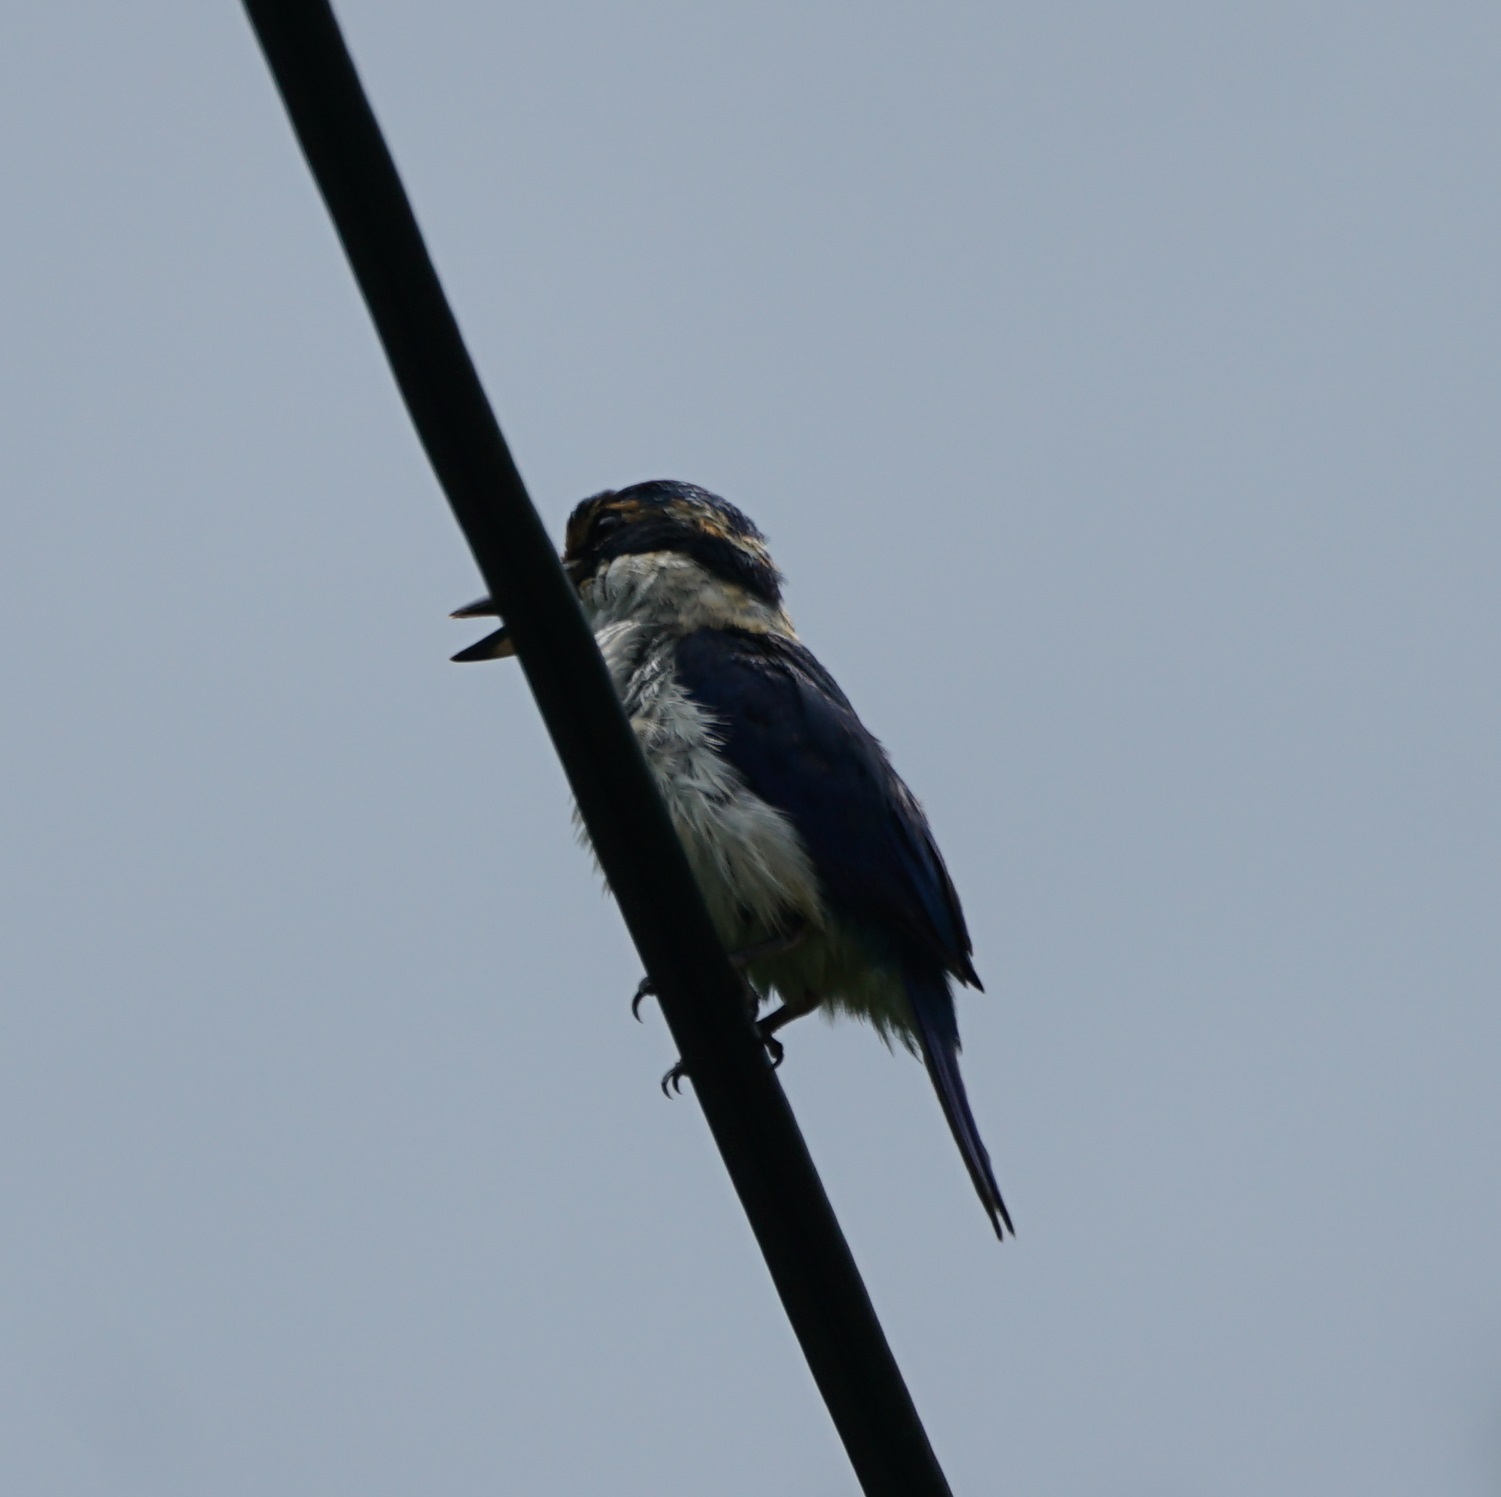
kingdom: Animalia
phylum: Chordata
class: Aves
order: Coraciiformes
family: Alcedinidae
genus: Todiramphus
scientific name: Todiramphus sacer
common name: Pacific kingfisher
